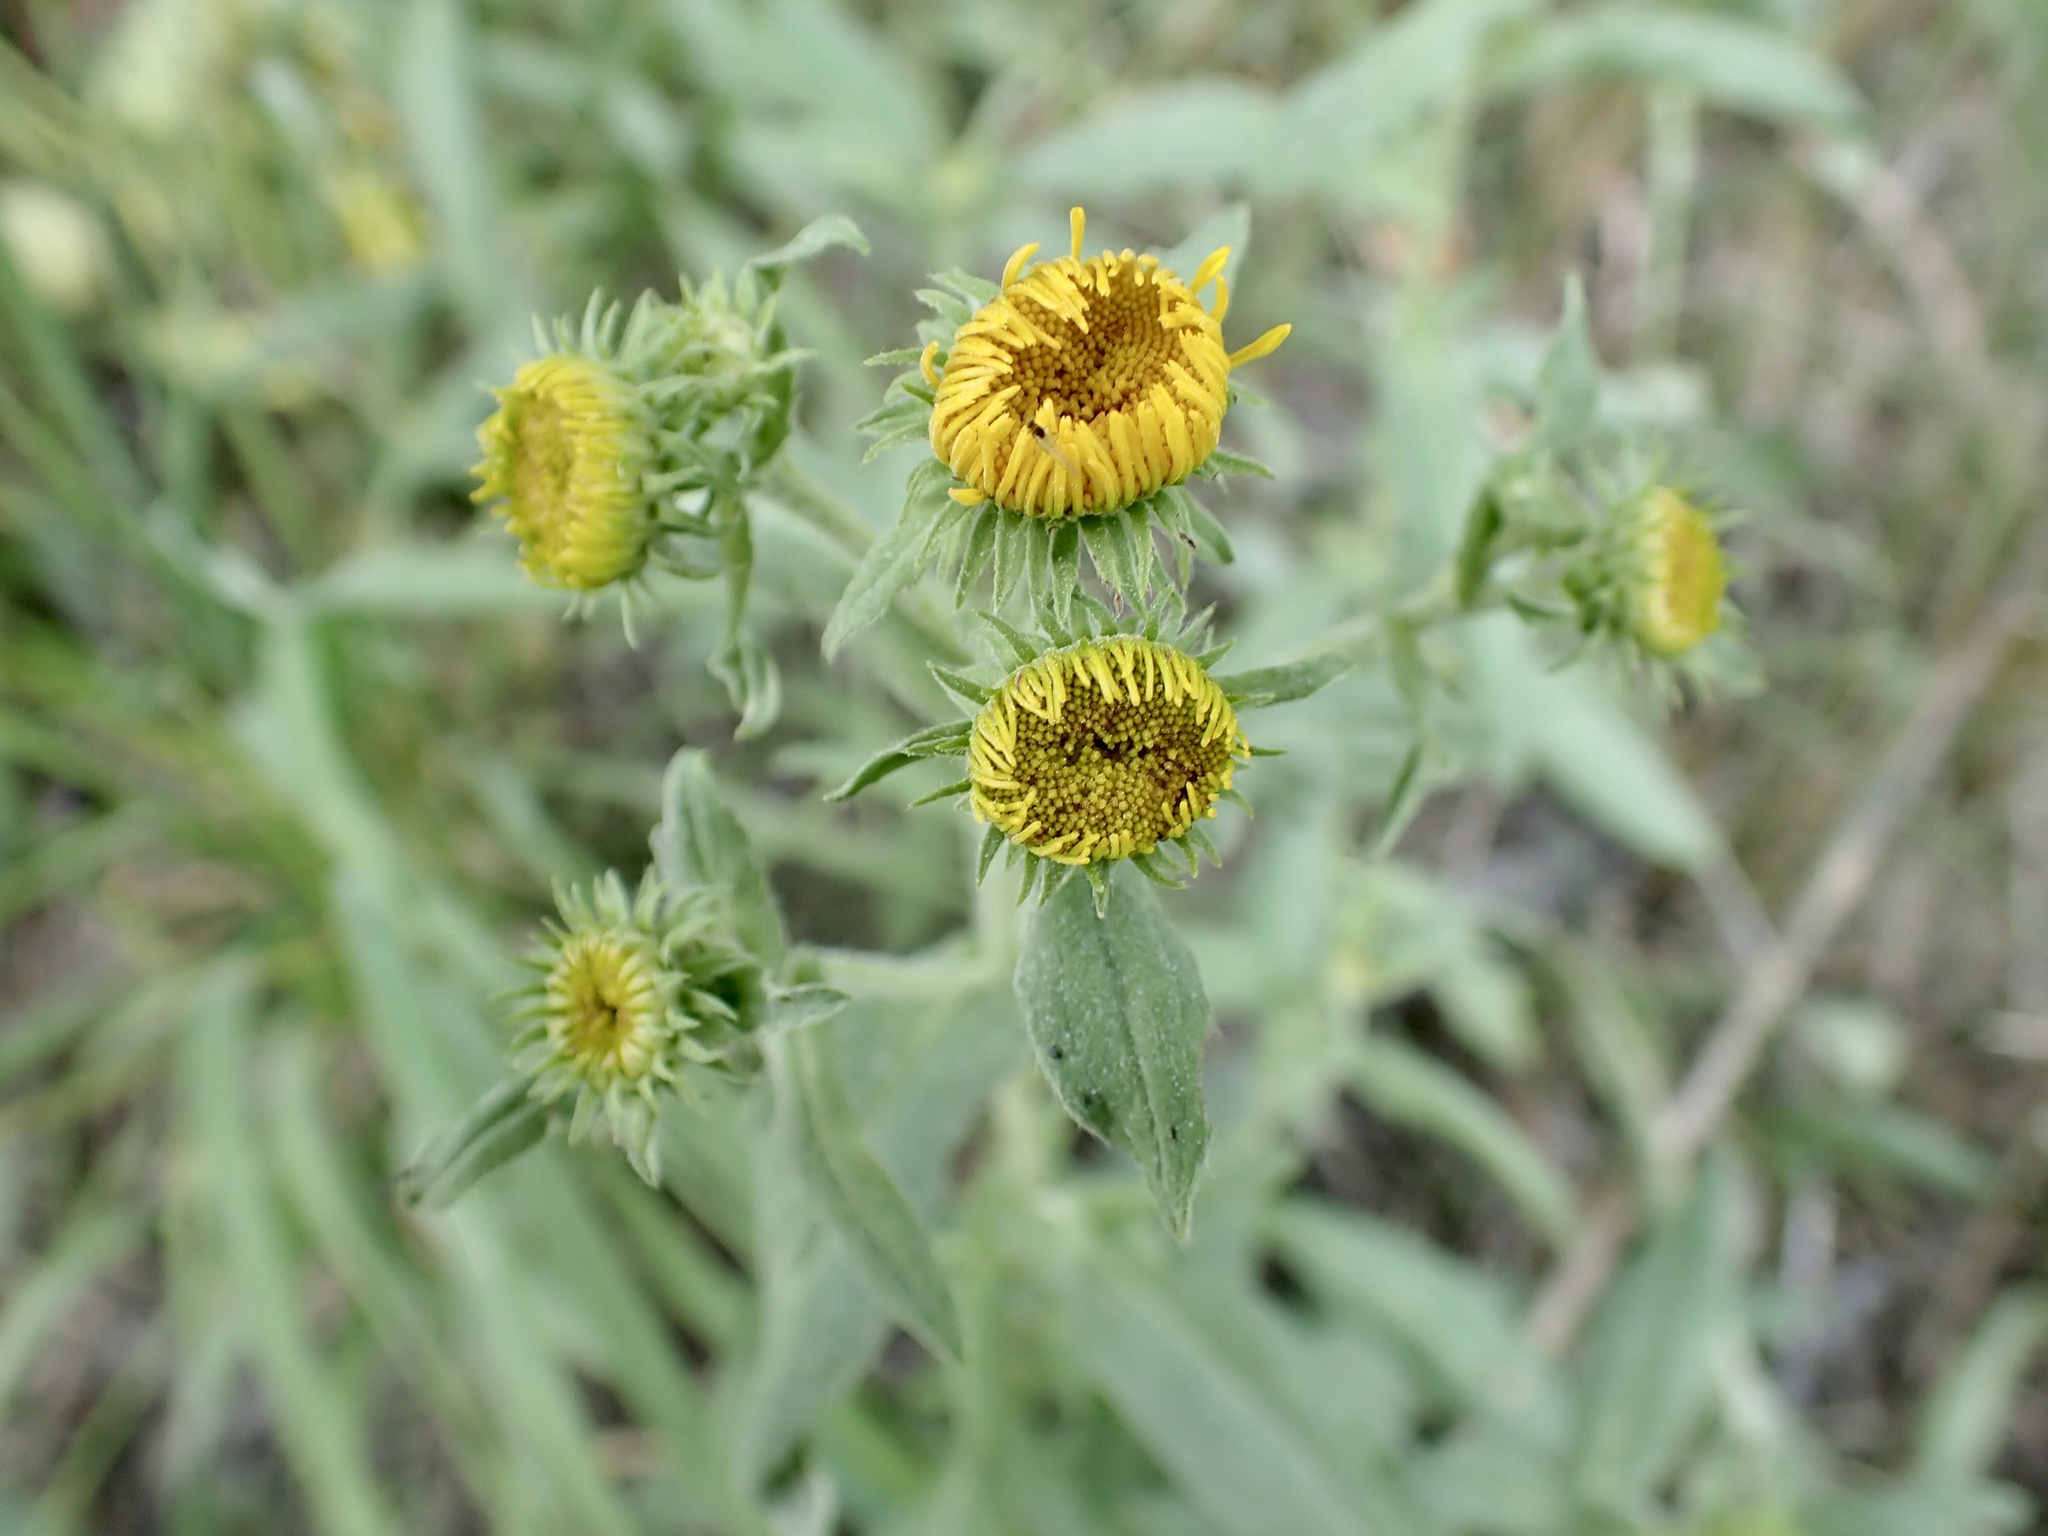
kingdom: Plantae
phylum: Tracheophyta
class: Magnoliopsida
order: Asterales
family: Asteraceae
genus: Pentanema
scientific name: Pentanema britannicum
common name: British elecampane
